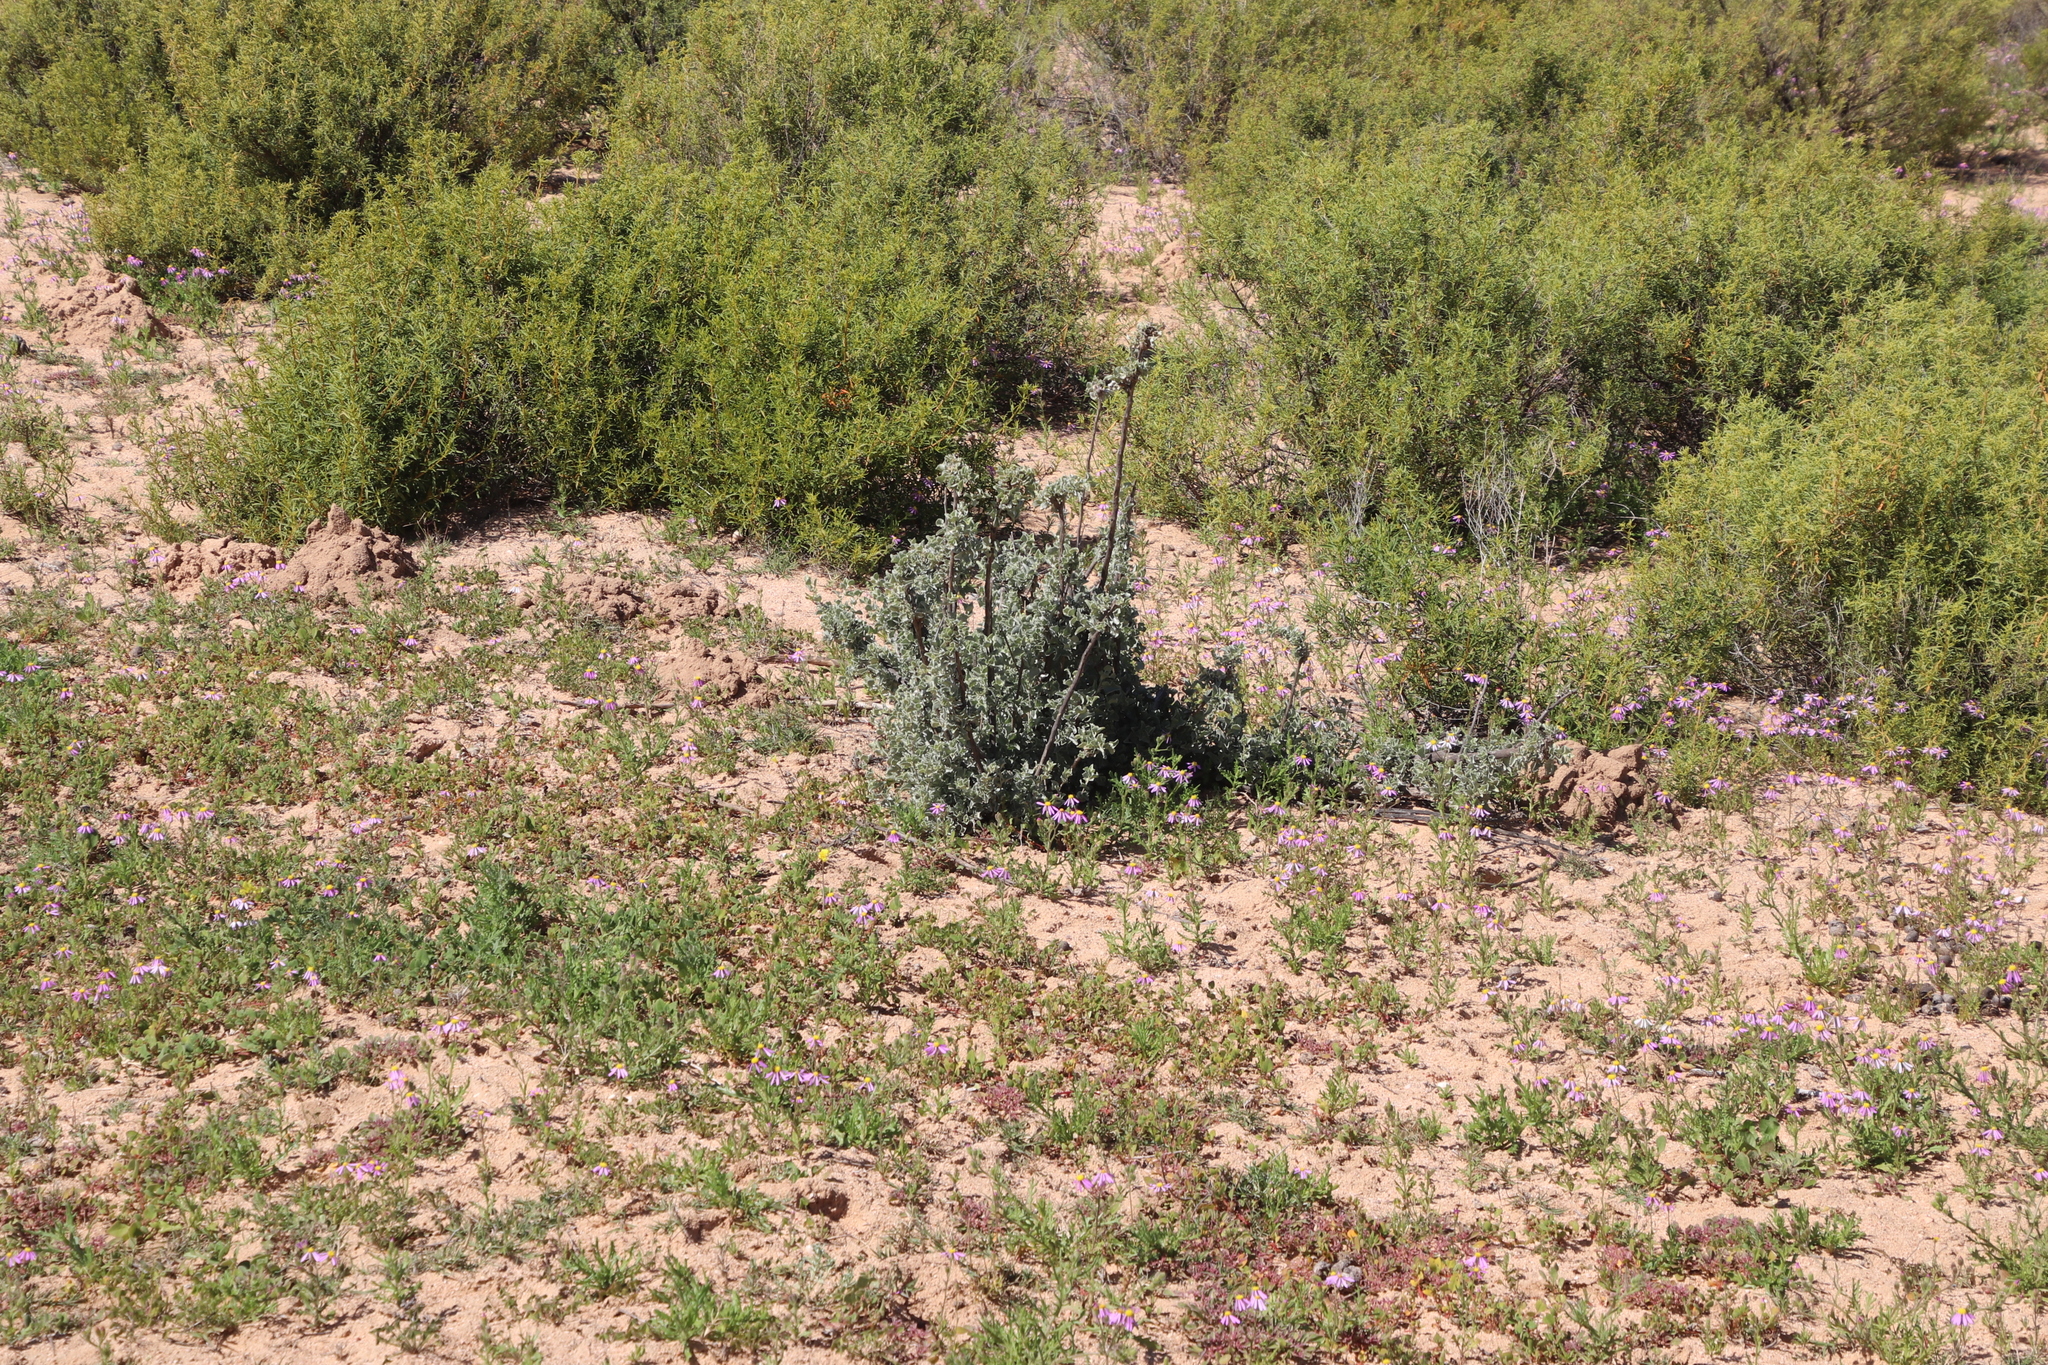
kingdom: Plantae
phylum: Tracheophyta
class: Magnoliopsida
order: Caryophyllales
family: Amaranthaceae
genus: Atriplex
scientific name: Atriplex nummularia
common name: Bluegreen saltbush
